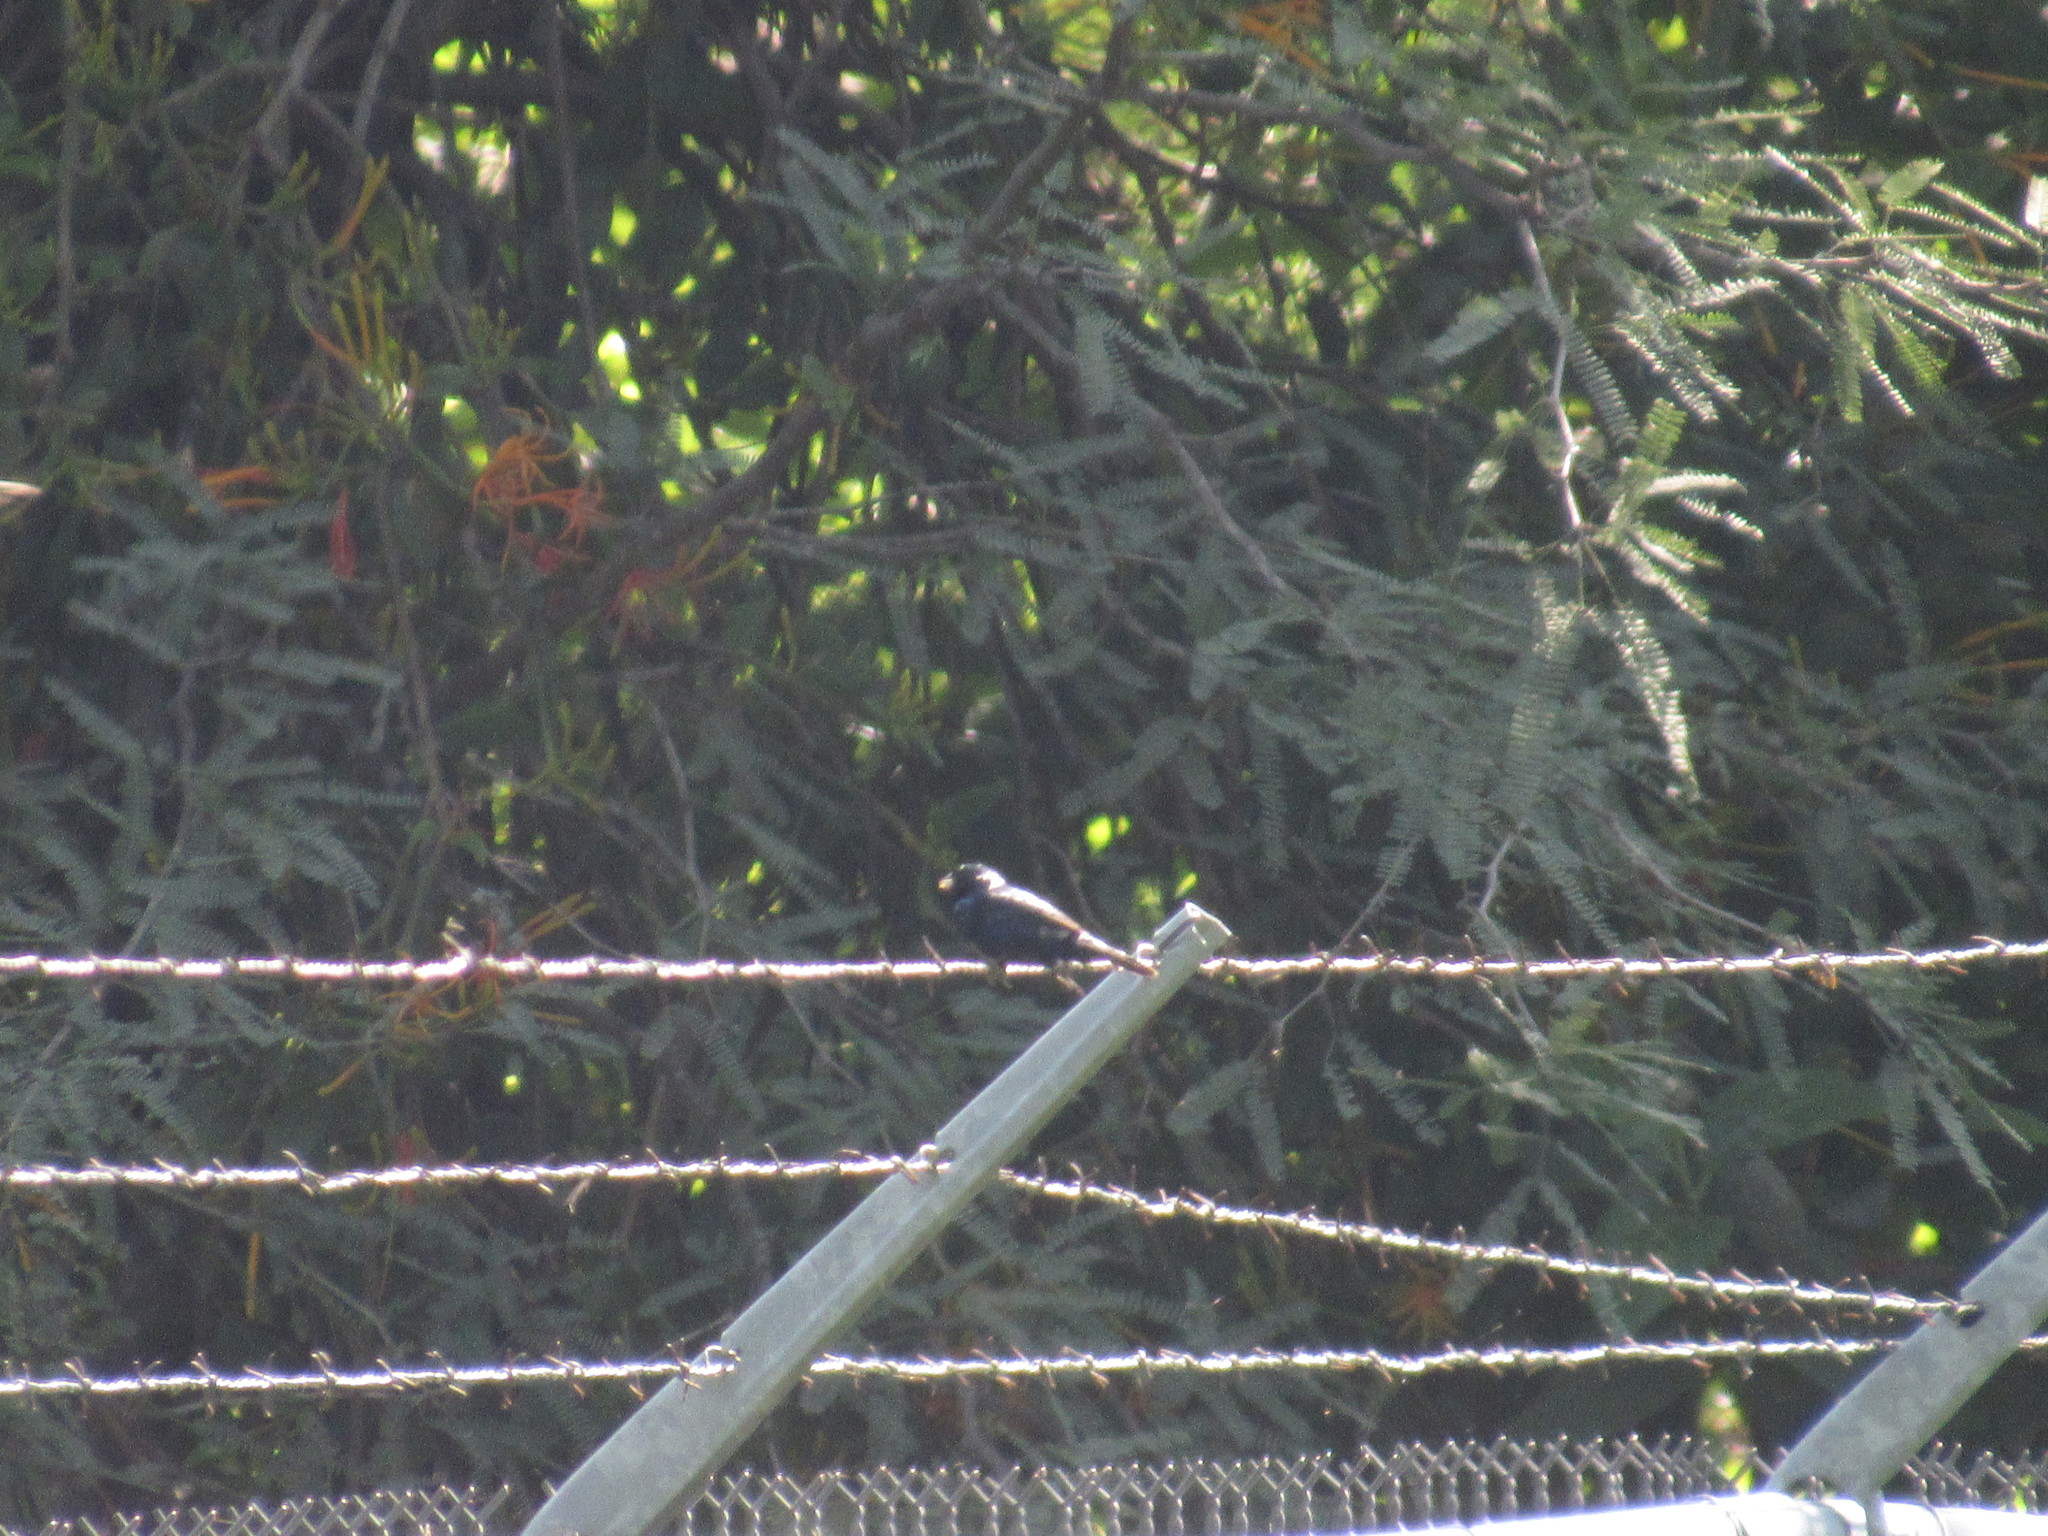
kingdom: Animalia
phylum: Chordata
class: Aves
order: Passeriformes
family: Thraupidae
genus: Volatinia
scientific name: Volatinia jacarina
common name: Blue-black grassquit
